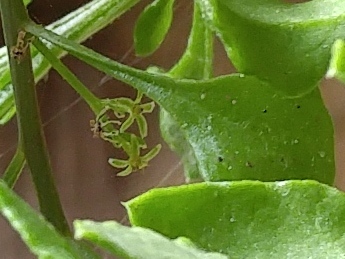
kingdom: Plantae
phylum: Tracheophyta
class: Magnoliopsida
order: Caryophyllales
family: Amaranthaceae
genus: Oreobliton
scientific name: Oreobliton thesioides
